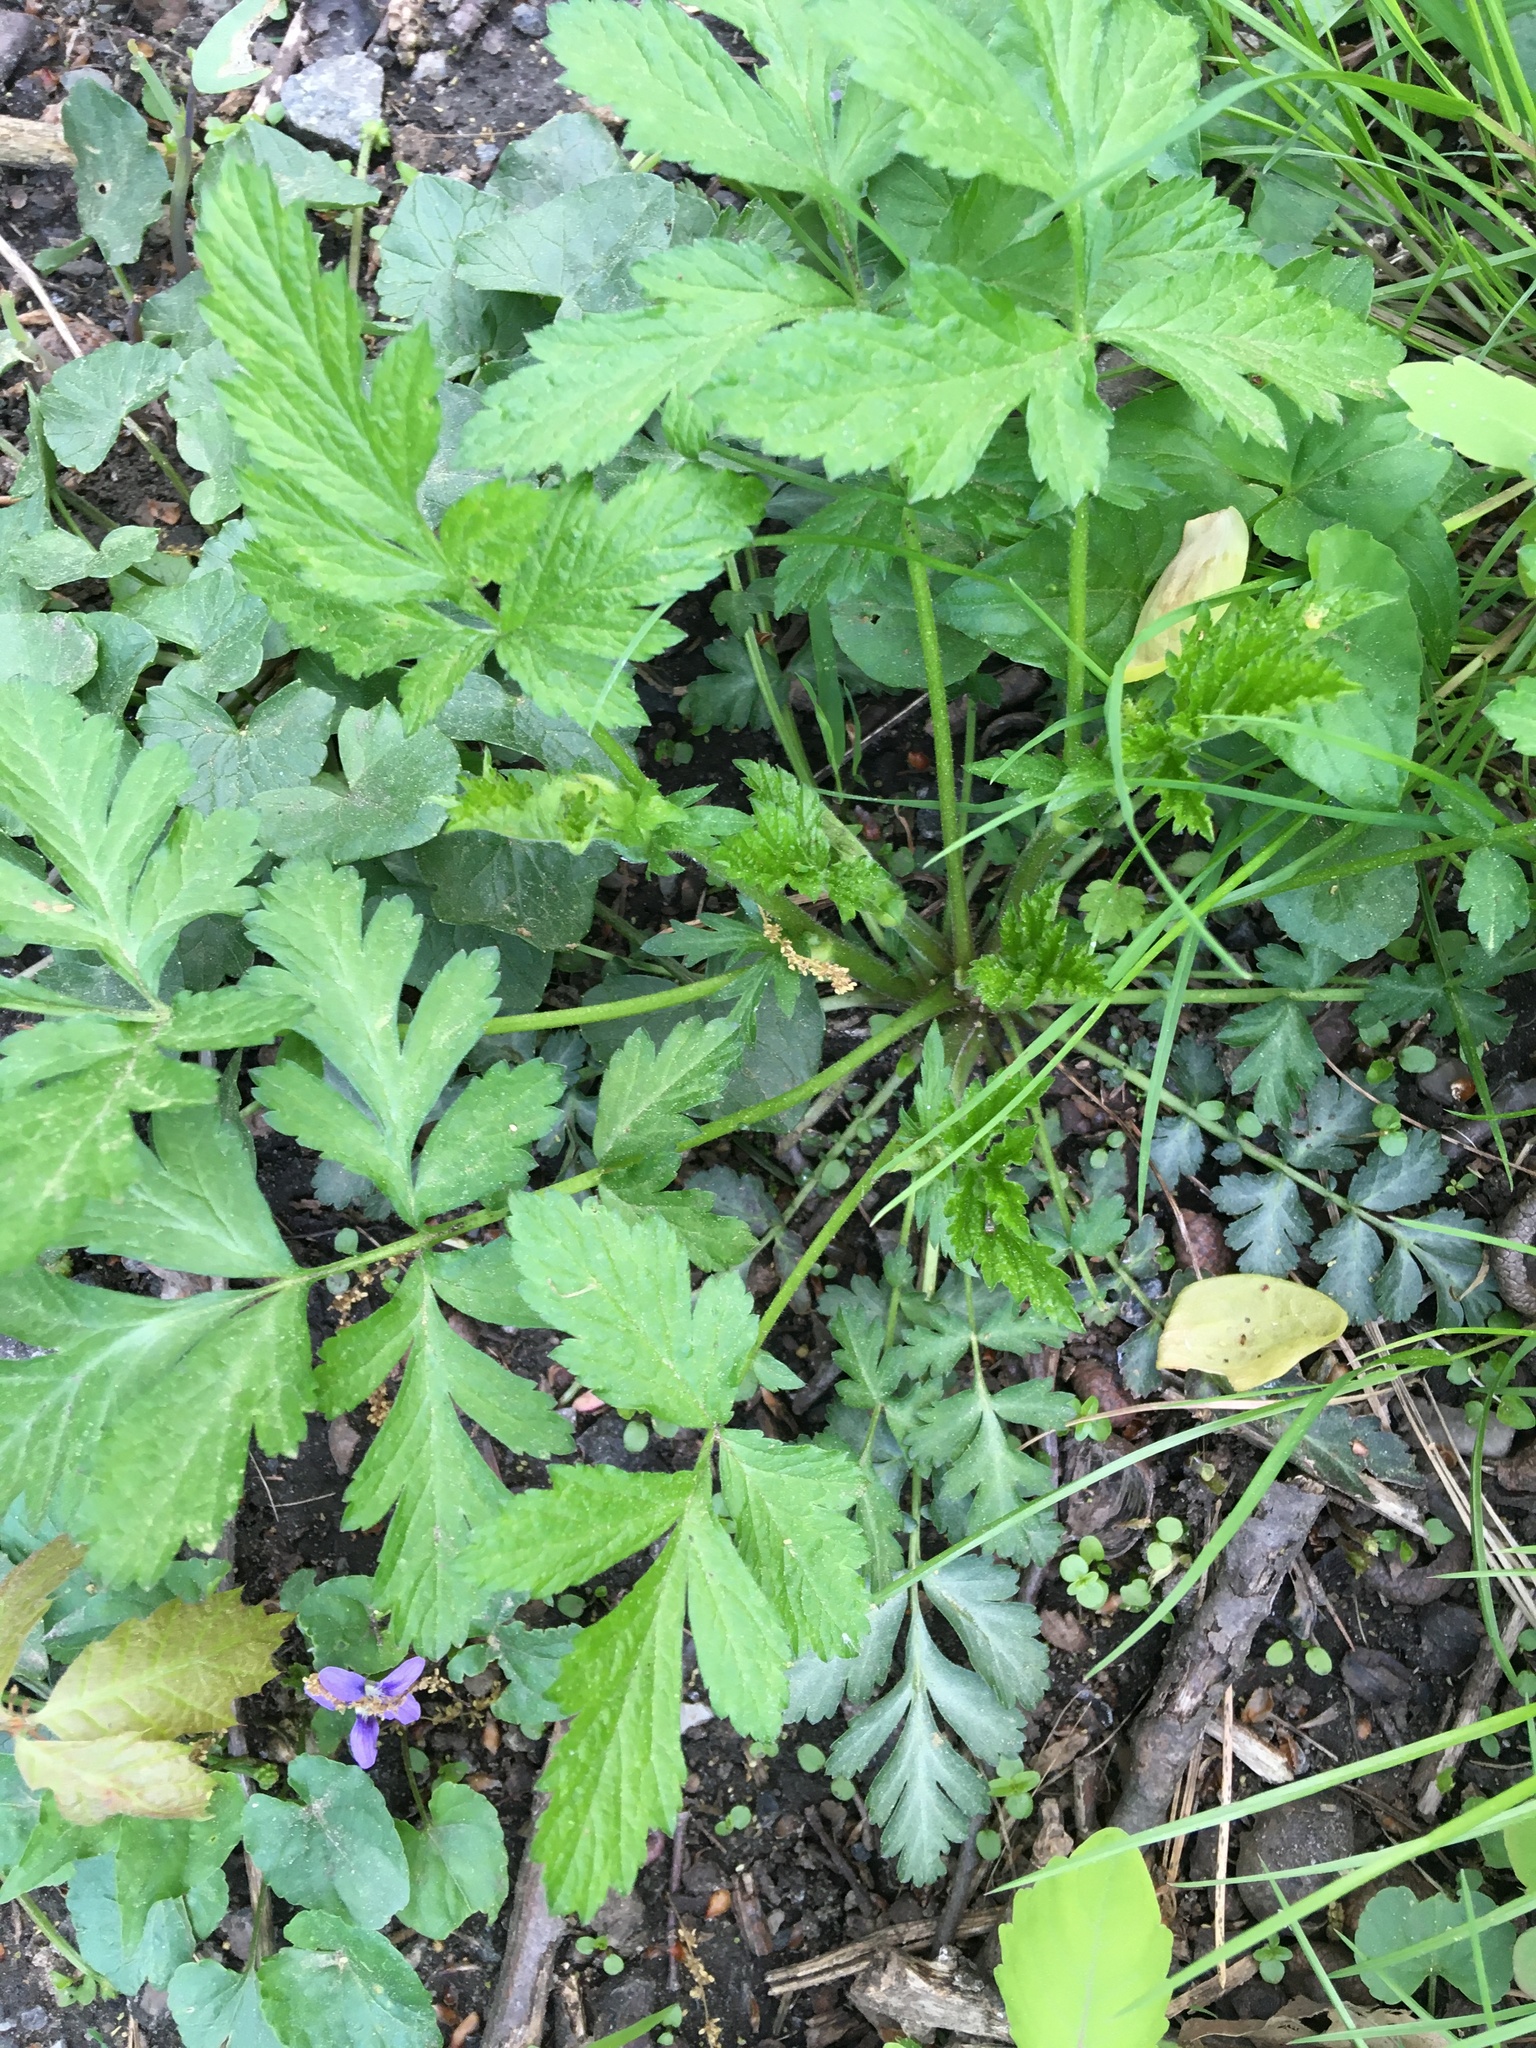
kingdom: Plantae
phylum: Tracheophyta
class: Magnoliopsida
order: Rosales
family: Rosaceae
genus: Geum
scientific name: Geum canadense
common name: White avens
